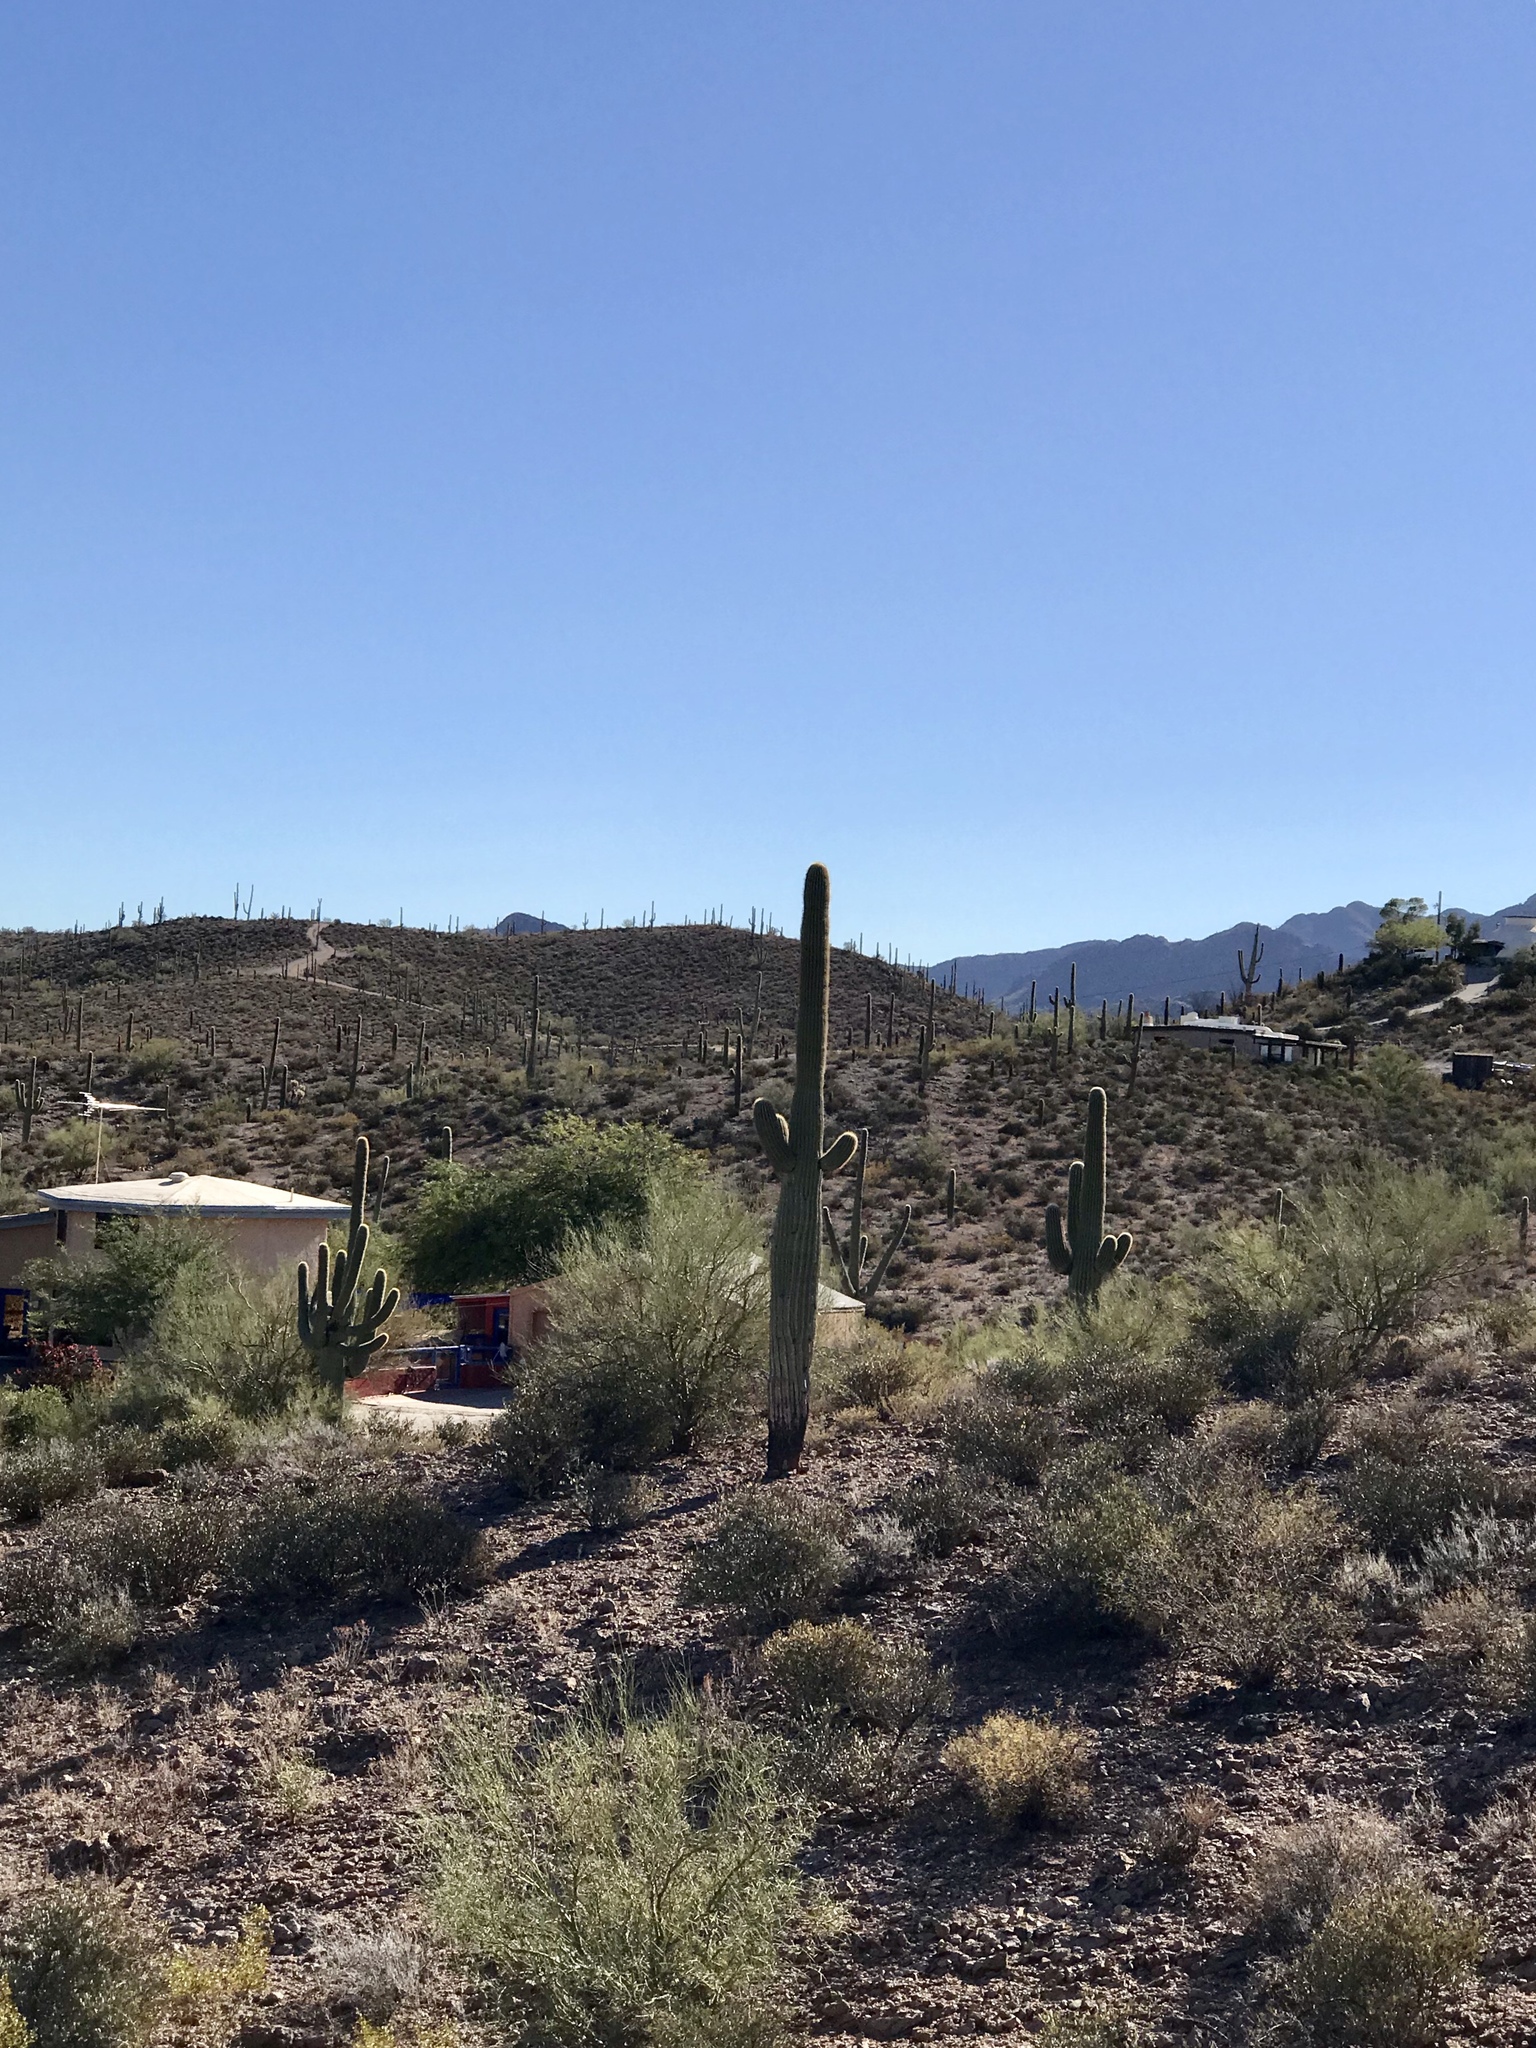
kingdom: Plantae
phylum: Tracheophyta
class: Magnoliopsida
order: Caryophyllales
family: Cactaceae
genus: Carnegiea
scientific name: Carnegiea gigantea
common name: Saguaro
